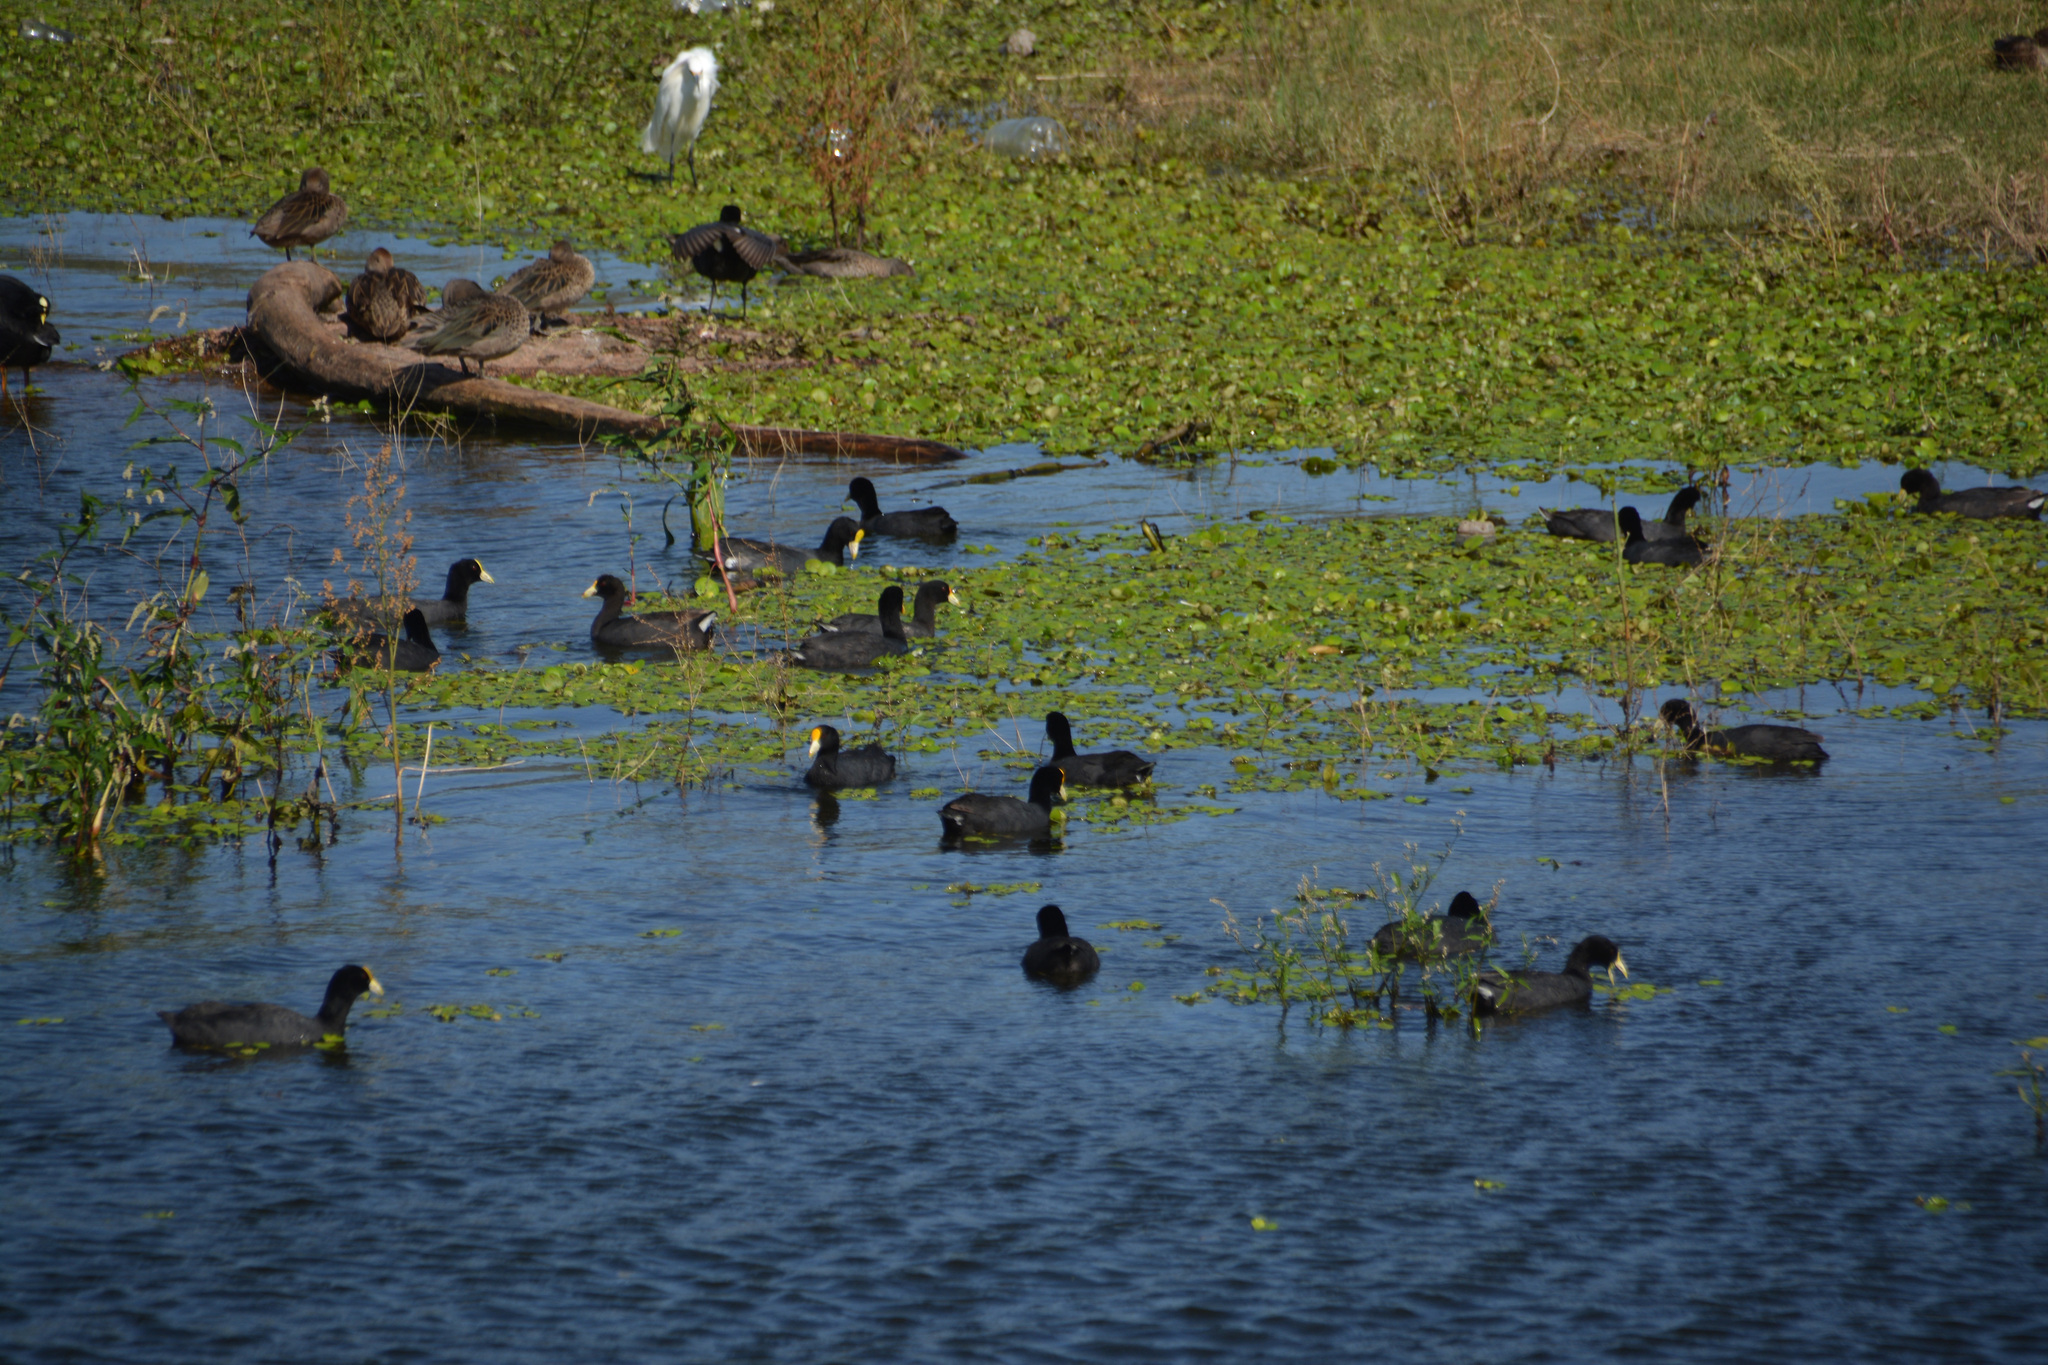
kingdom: Animalia
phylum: Chordata
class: Aves
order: Pelecaniformes
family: Ardeidae
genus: Egretta
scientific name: Egretta thula
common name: Snowy egret
